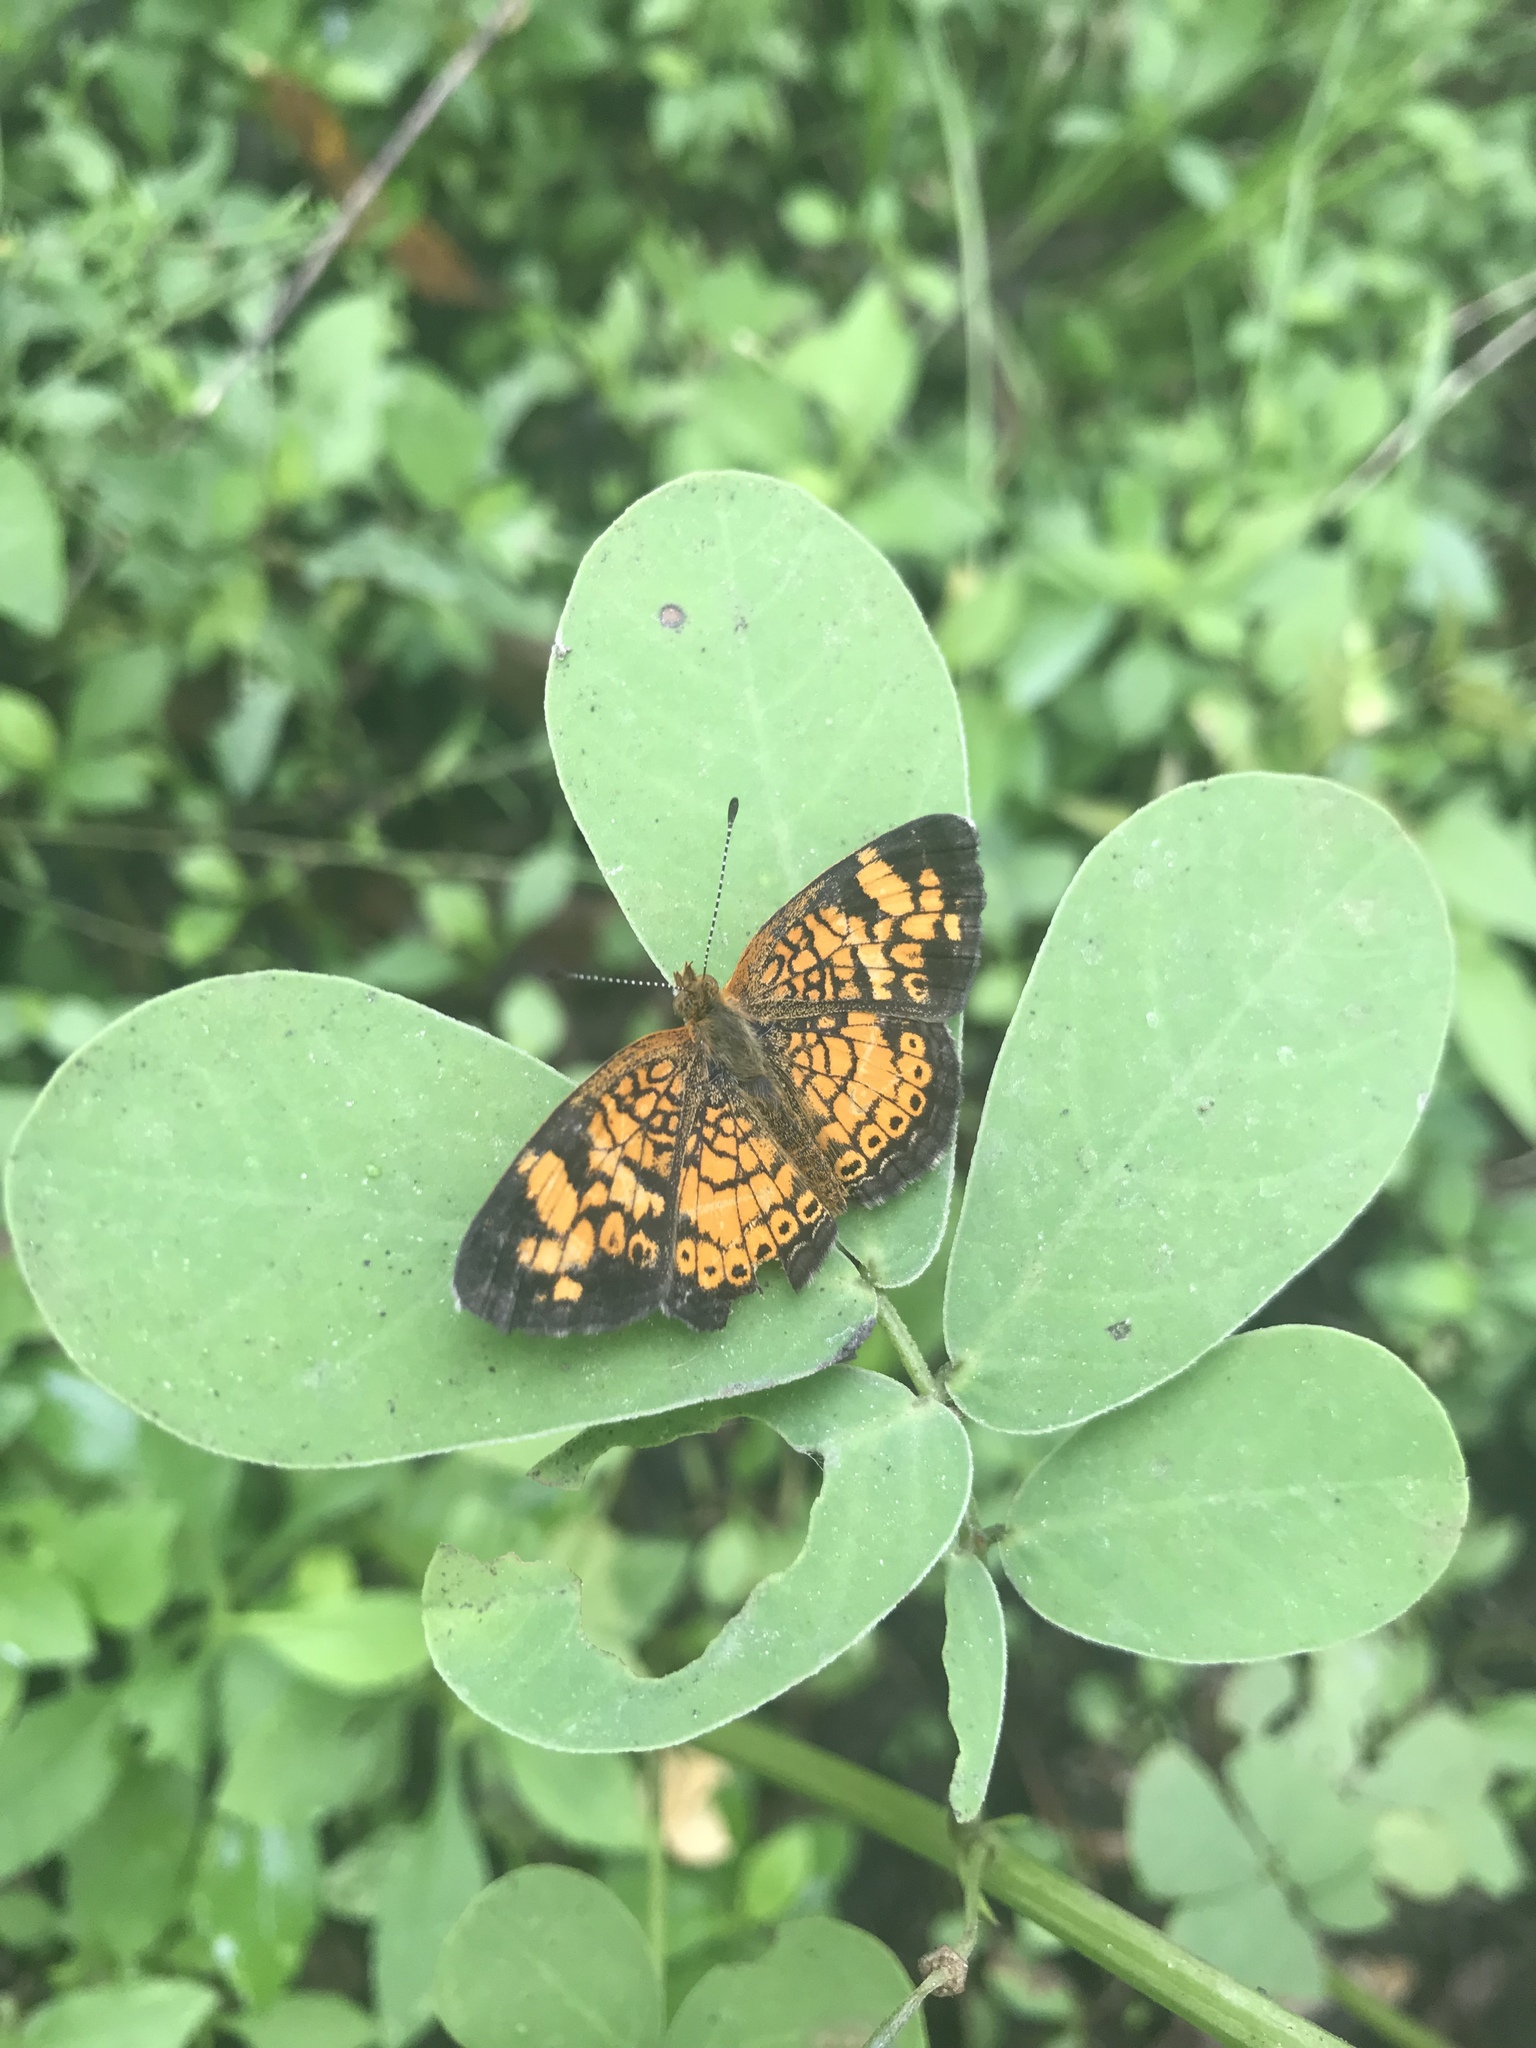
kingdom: Animalia
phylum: Arthropoda
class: Insecta
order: Lepidoptera
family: Nymphalidae
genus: Phyciodes
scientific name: Phyciodes tharos
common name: Pearl crescent
